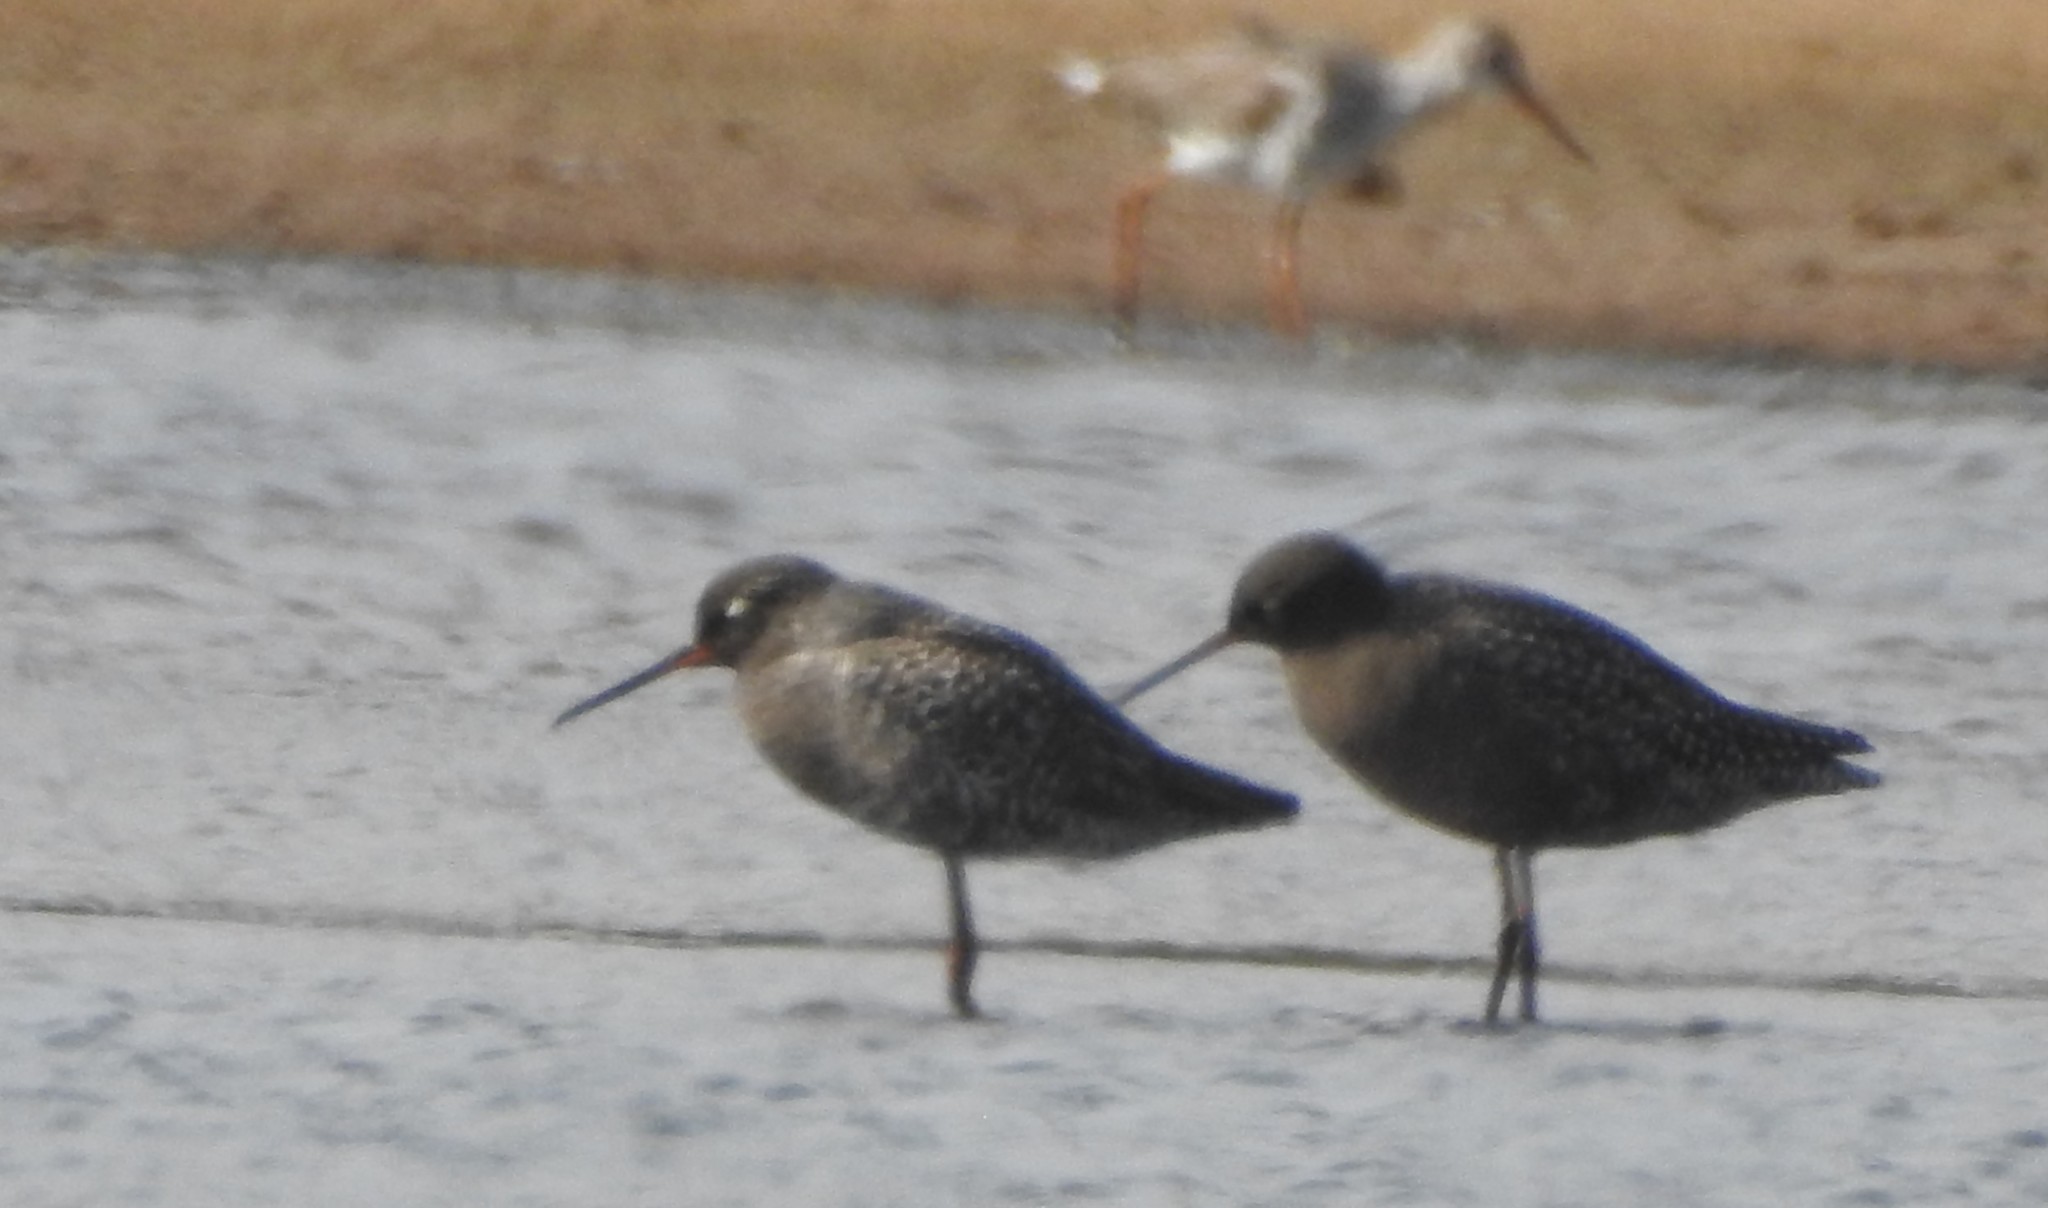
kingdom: Animalia
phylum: Chordata
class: Aves
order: Charadriiformes
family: Scolopacidae
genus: Tringa
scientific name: Tringa erythropus
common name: Spotted redshank
